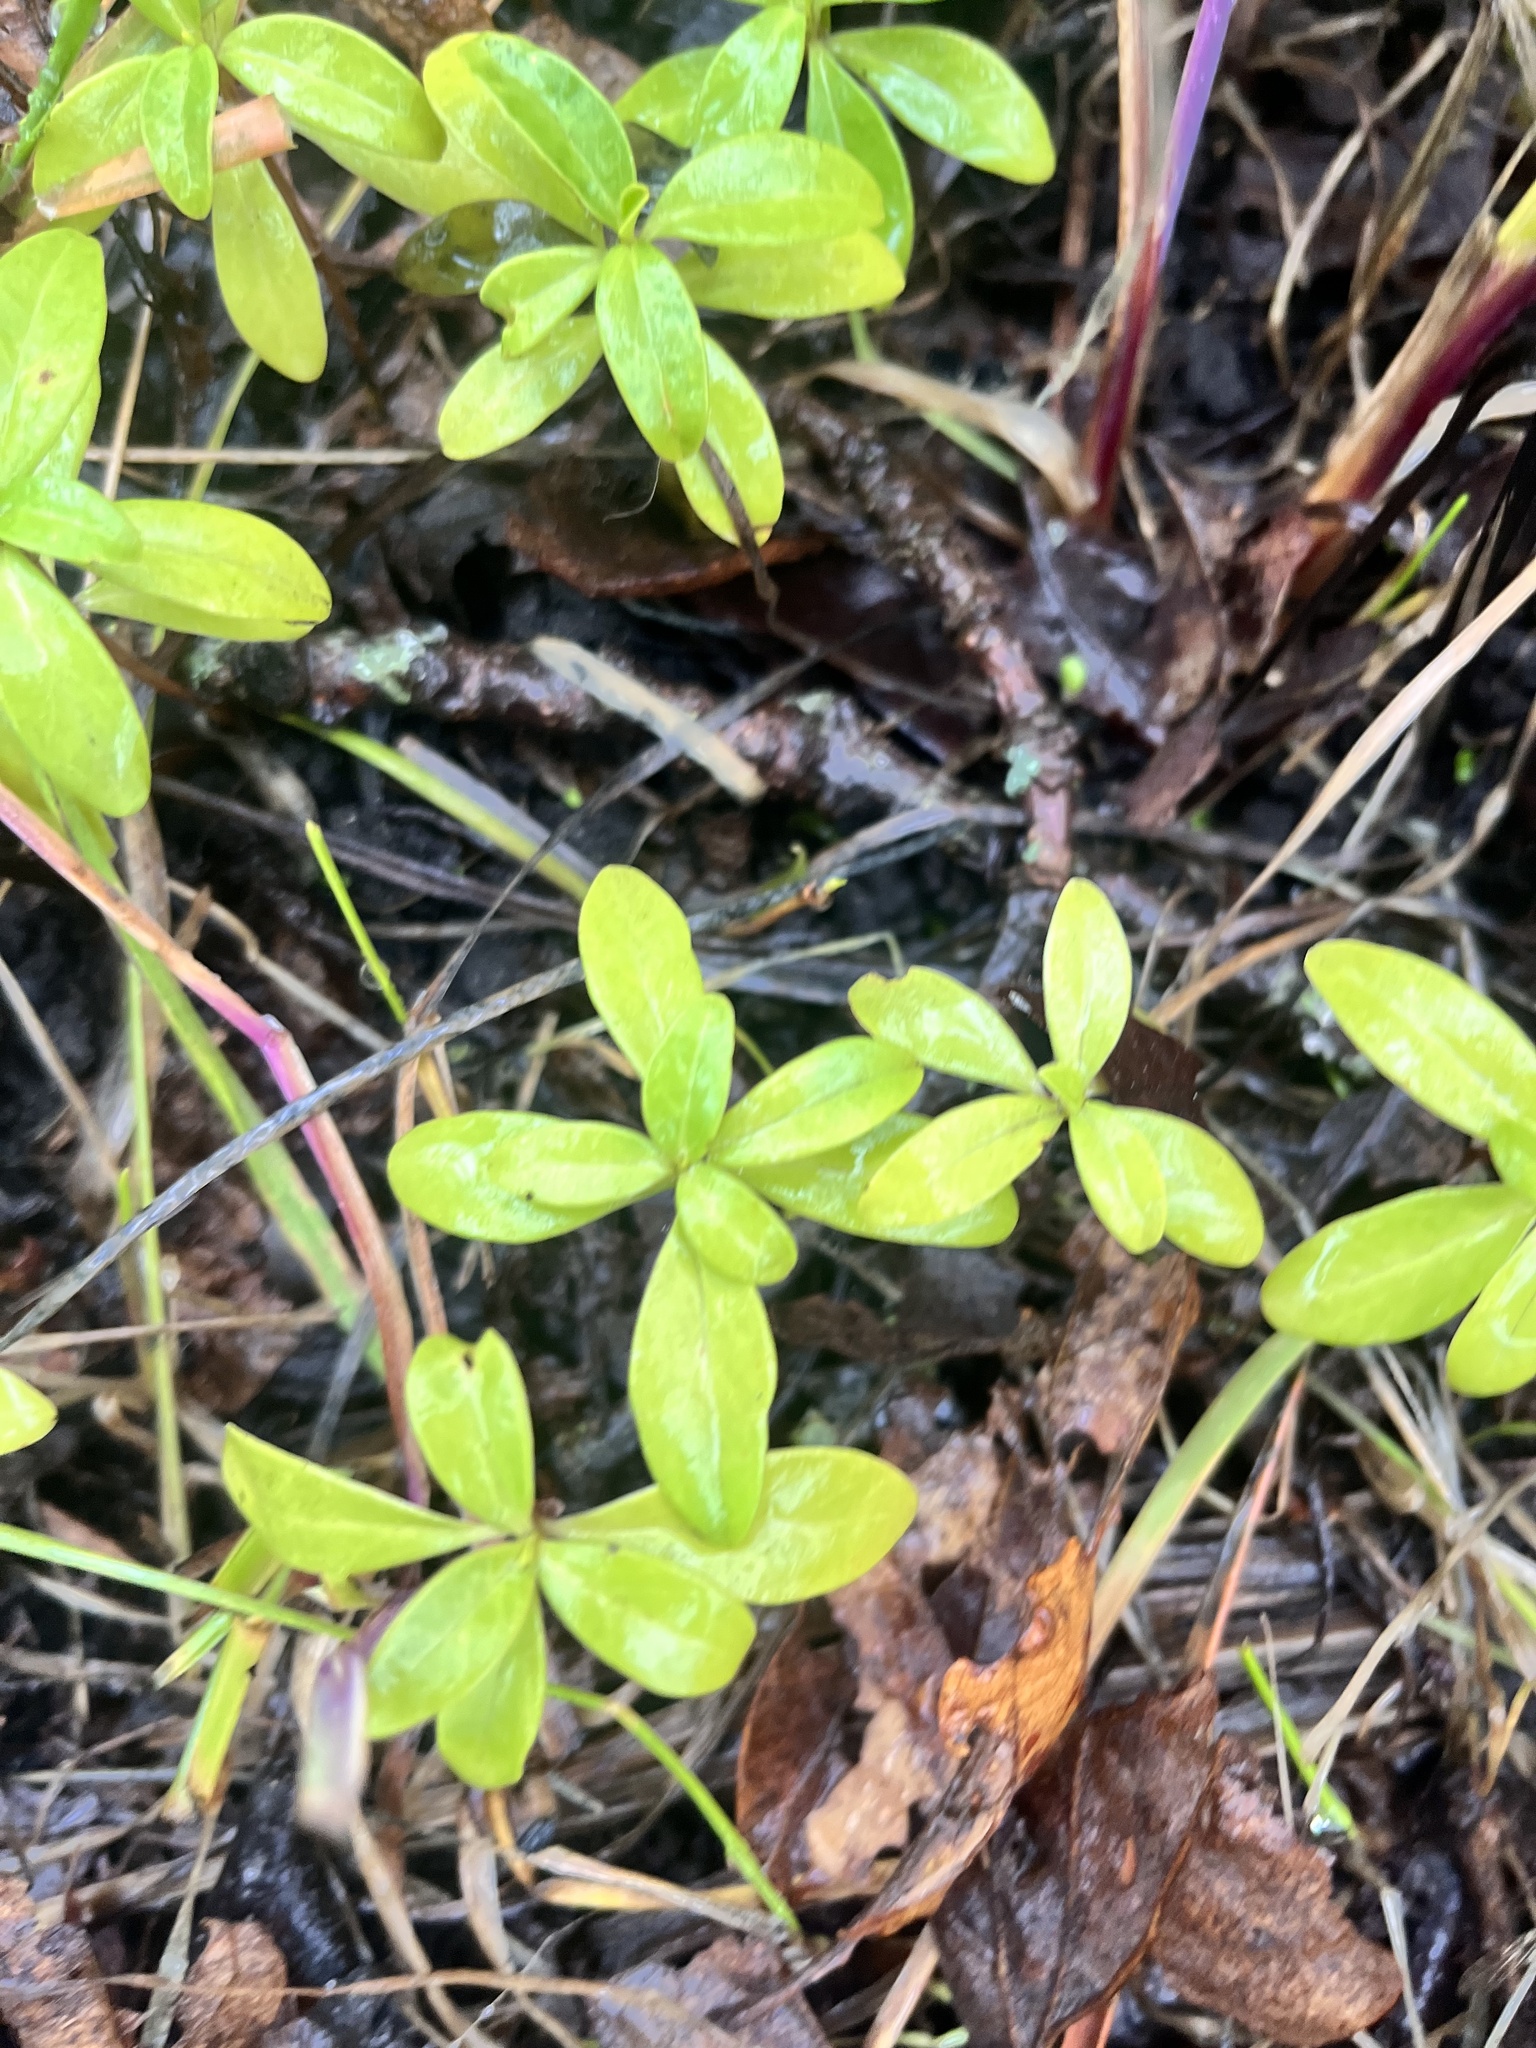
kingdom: Plantae
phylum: Tracheophyta
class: Magnoliopsida
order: Malvales
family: Thymelaeaceae
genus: Daphne
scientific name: Daphne laureola
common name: Spurge-laurel
